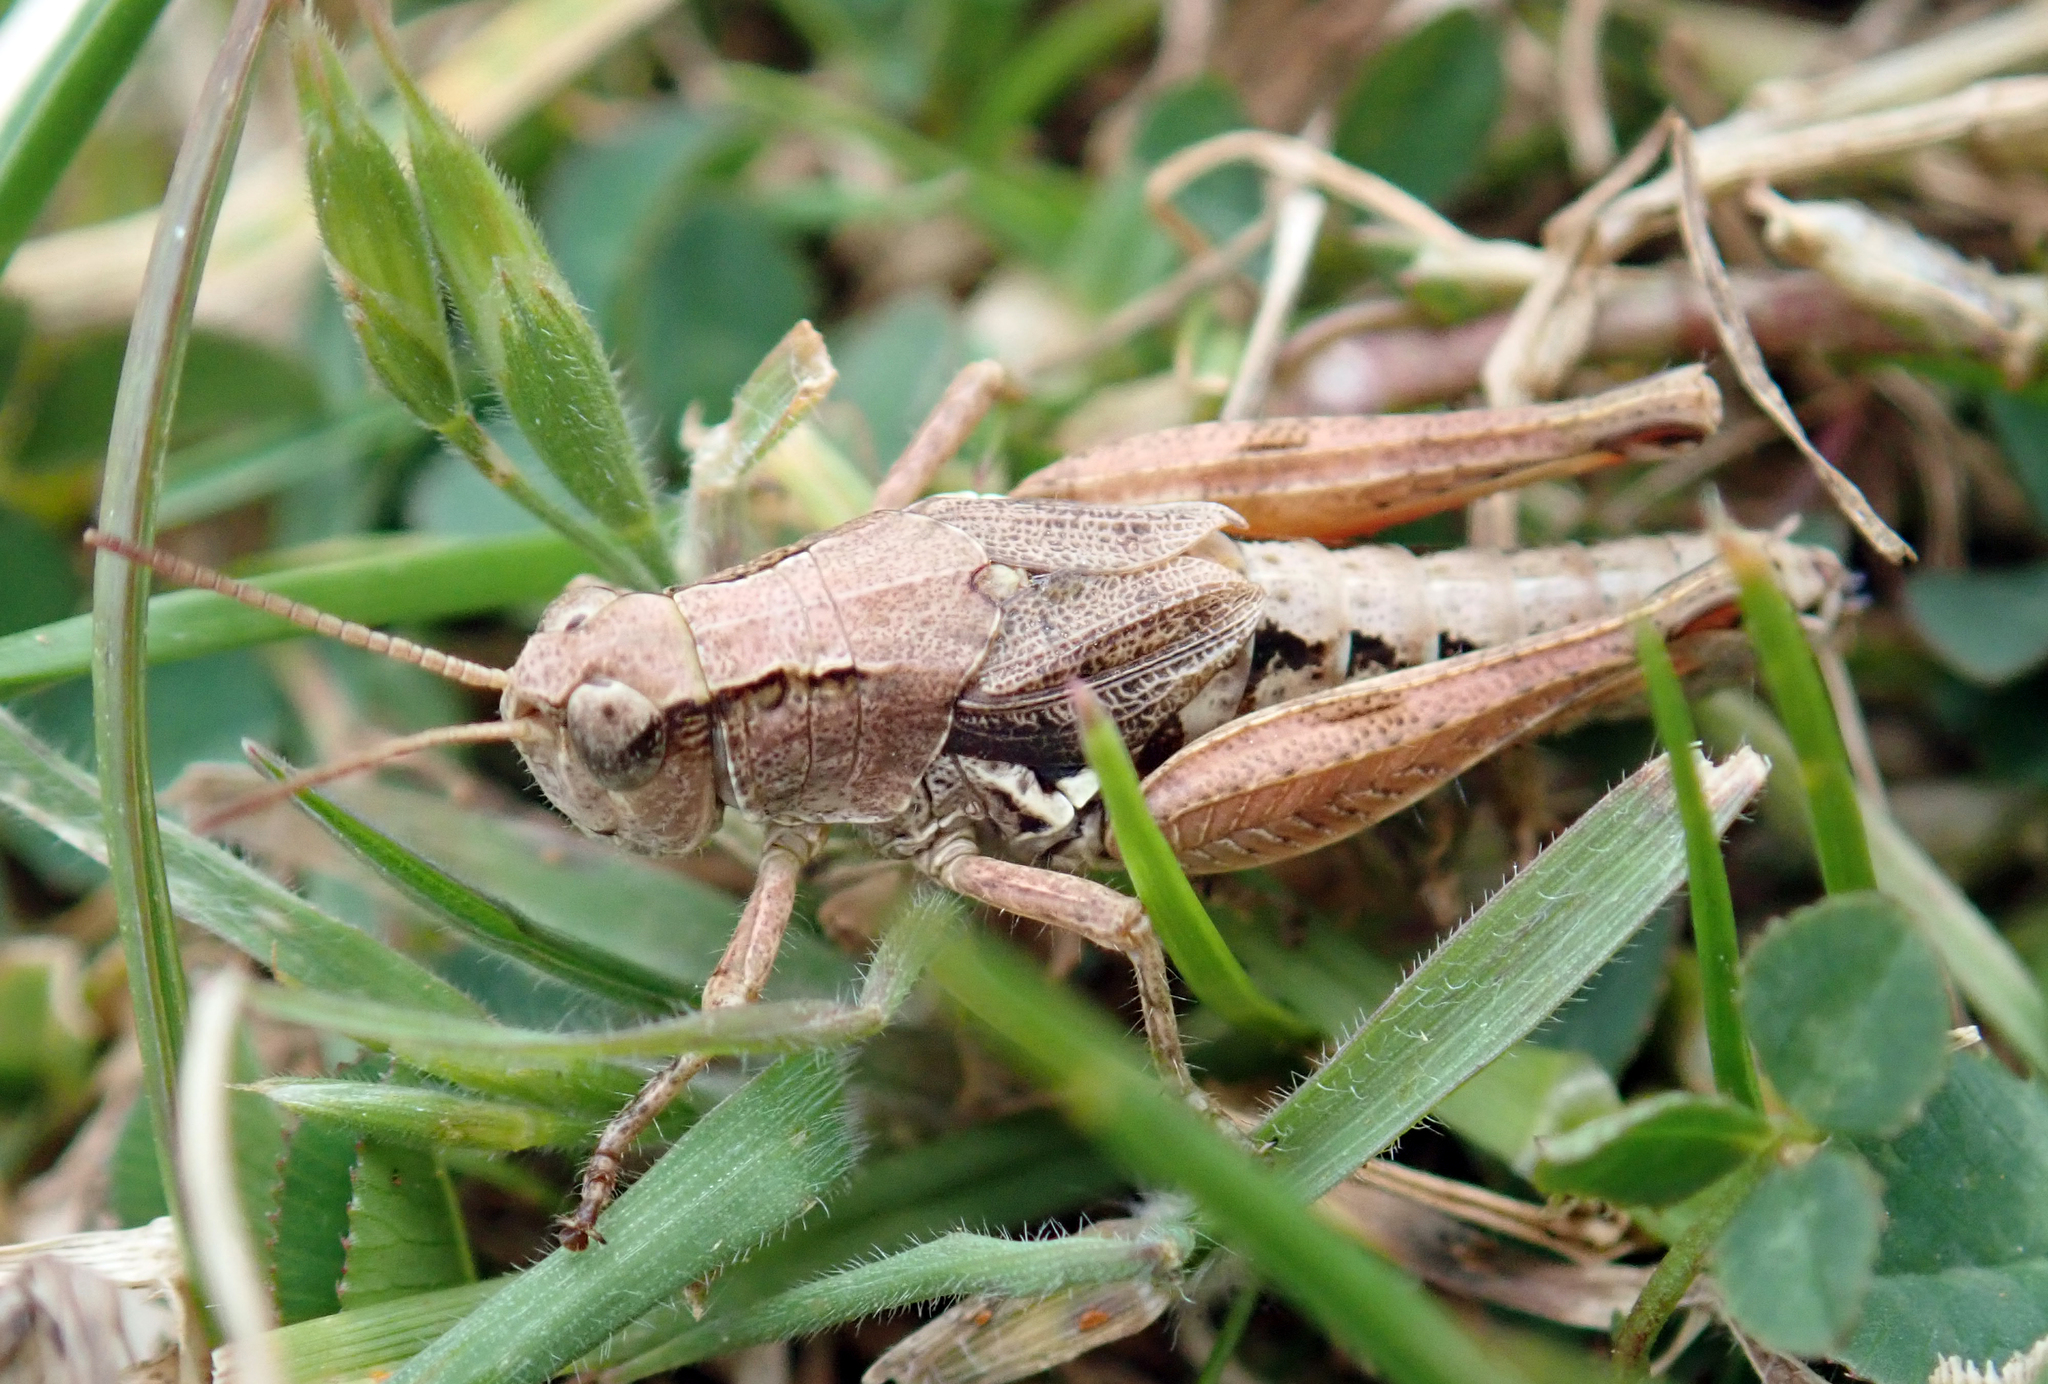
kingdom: Animalia
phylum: Arthropoda
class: Insecta
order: Orthoptera
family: Acrididae
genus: Phaulacridium
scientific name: Phaulacridium marginale
